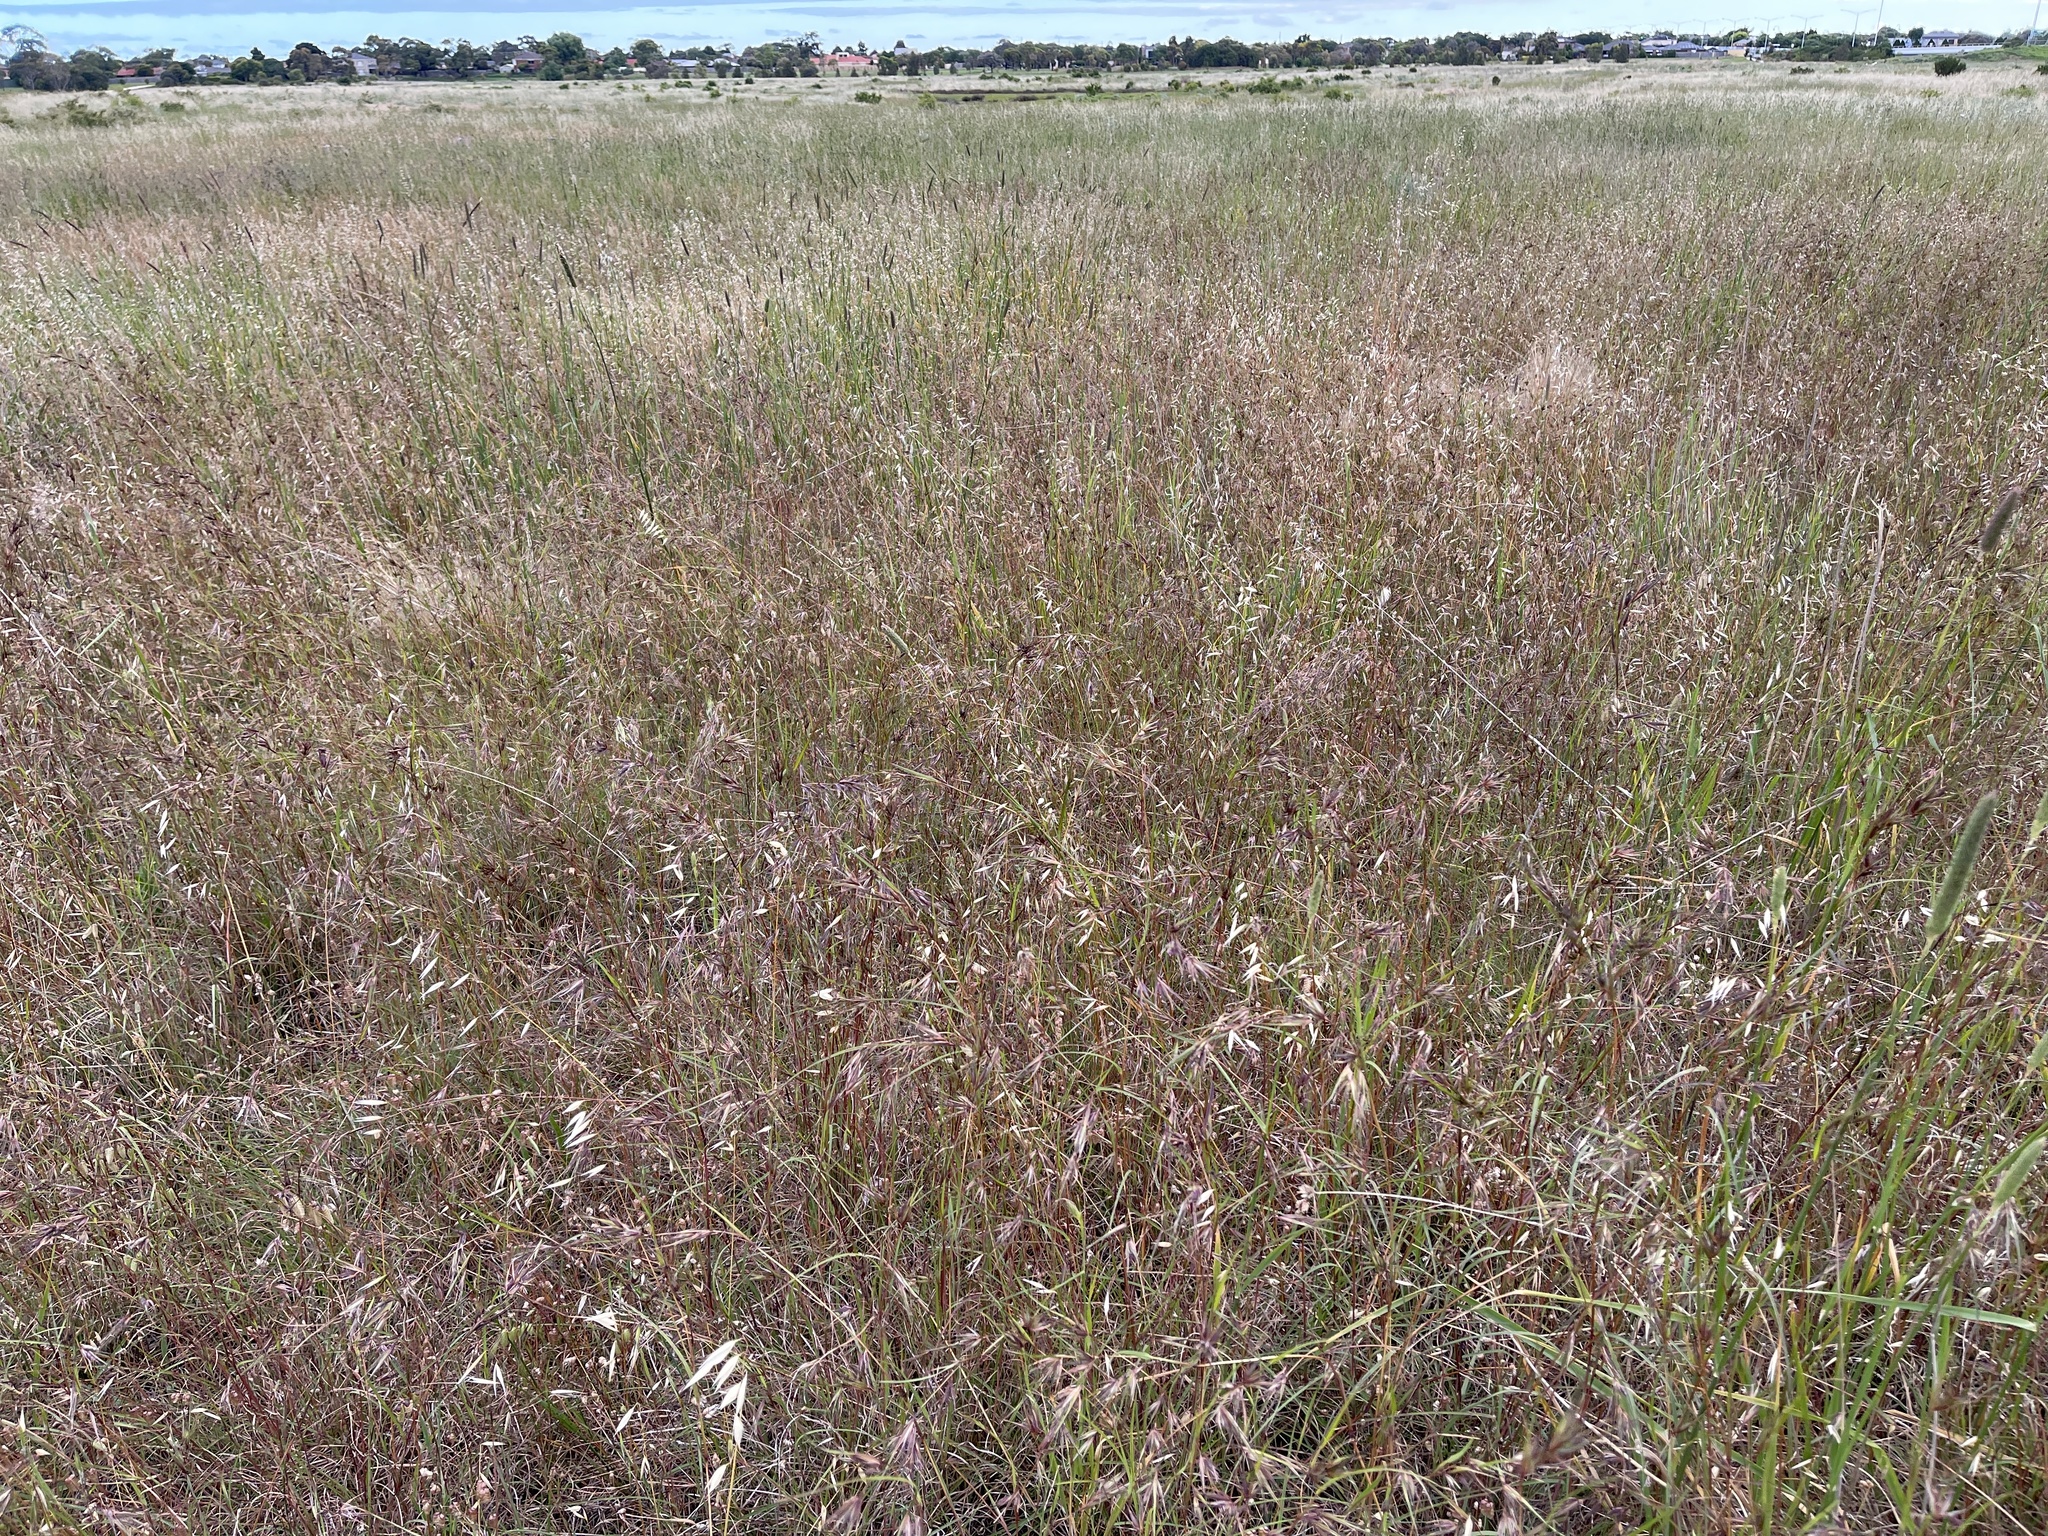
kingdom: Plantae
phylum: Tracheophyta
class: Liliopsida
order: Poales
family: Poaceae
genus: Themeda
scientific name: Themeda triandra
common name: Kangaroo grass
